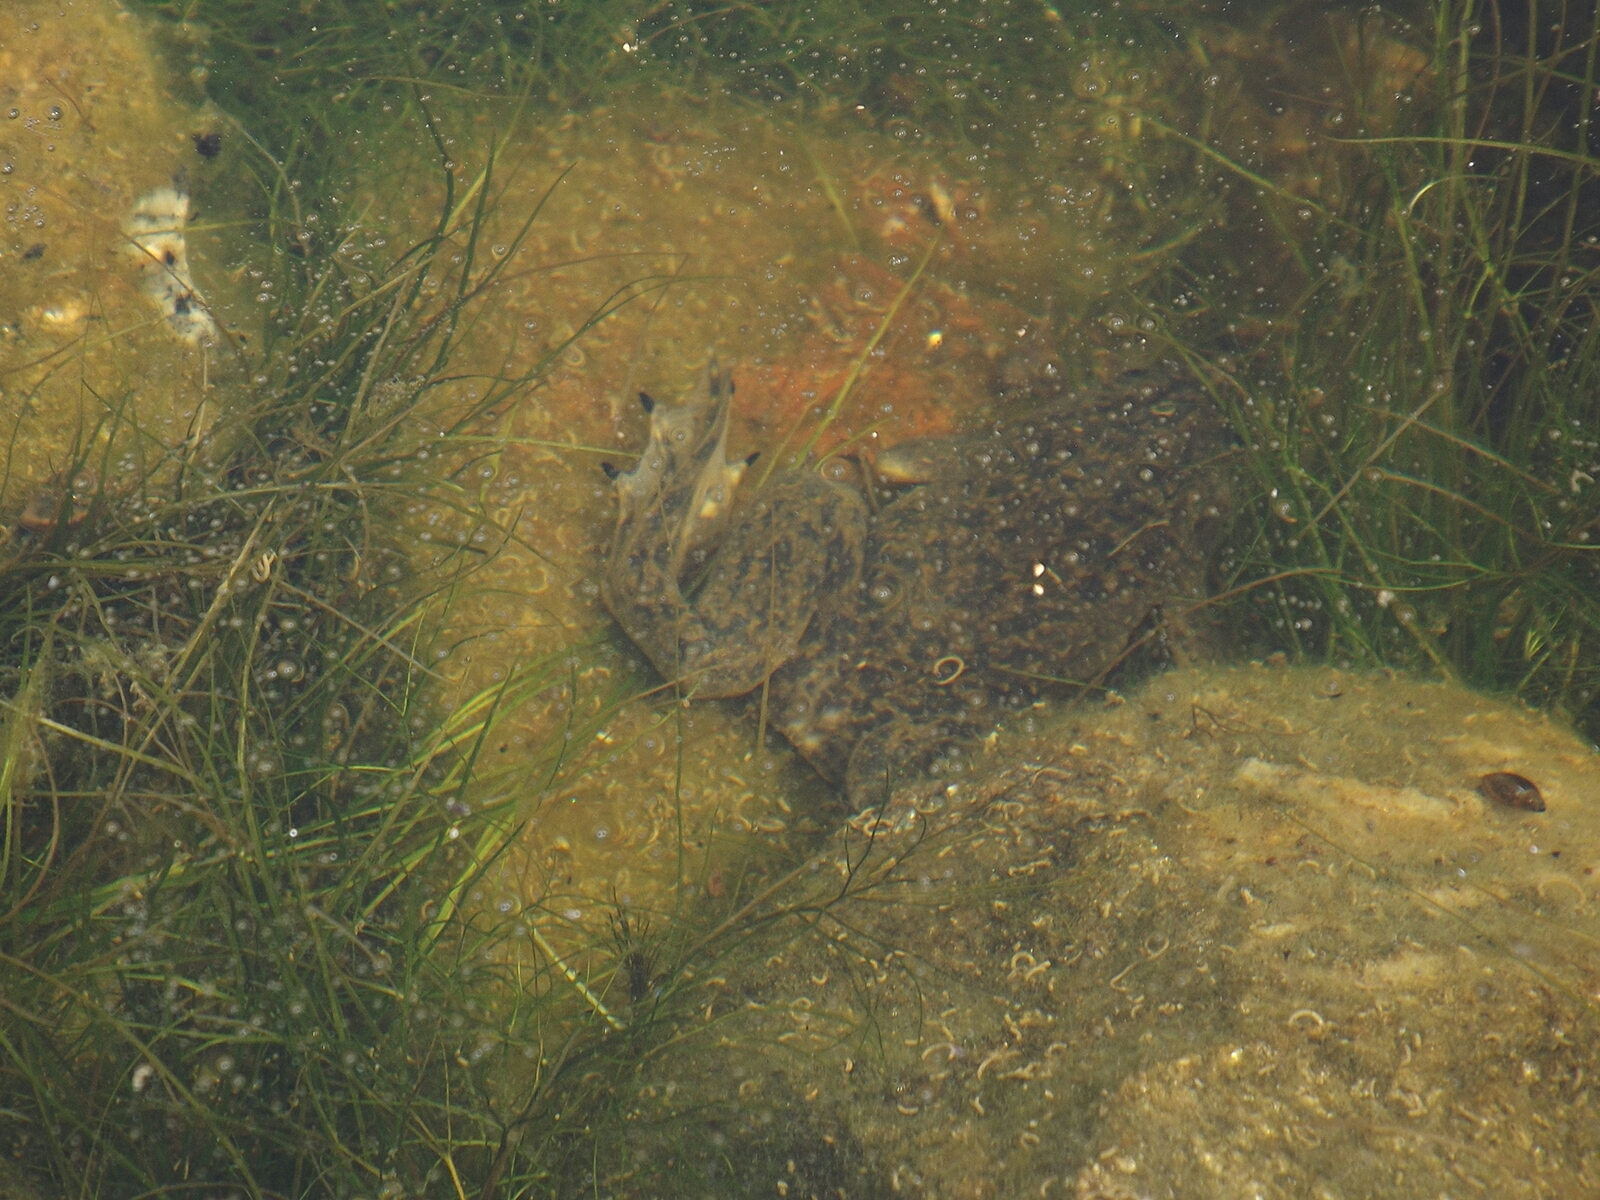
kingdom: Animalia
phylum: Chordata
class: Amphibia
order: Anura
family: Pipidae
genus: Xenopus
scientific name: Xenopus laevis
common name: African clawed frog
